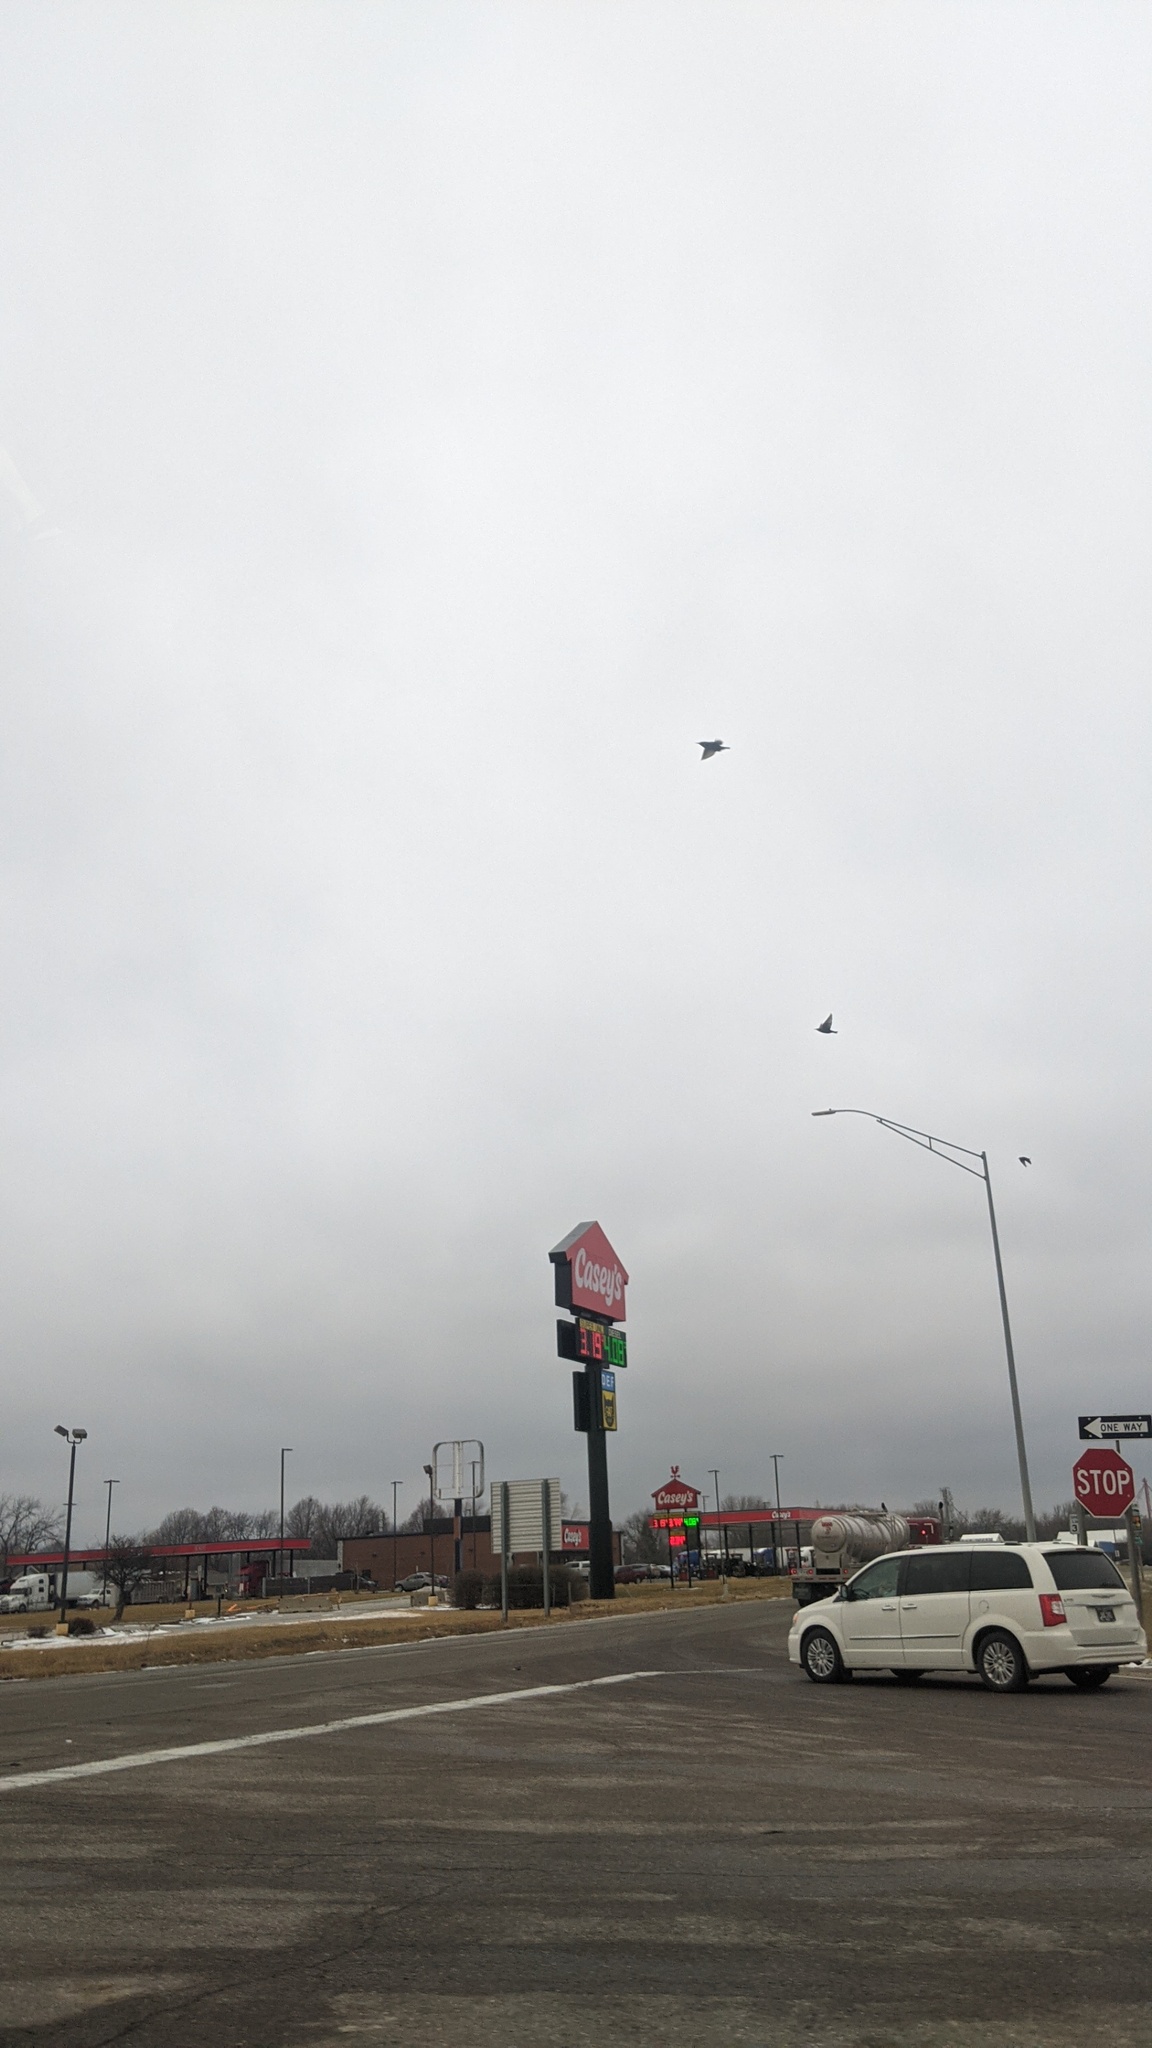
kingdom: Animalia
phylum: Chordata
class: Aves
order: Passeriformes
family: Sturnidae
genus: Sturnus
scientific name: Sturnus vulgaris
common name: Common starling
